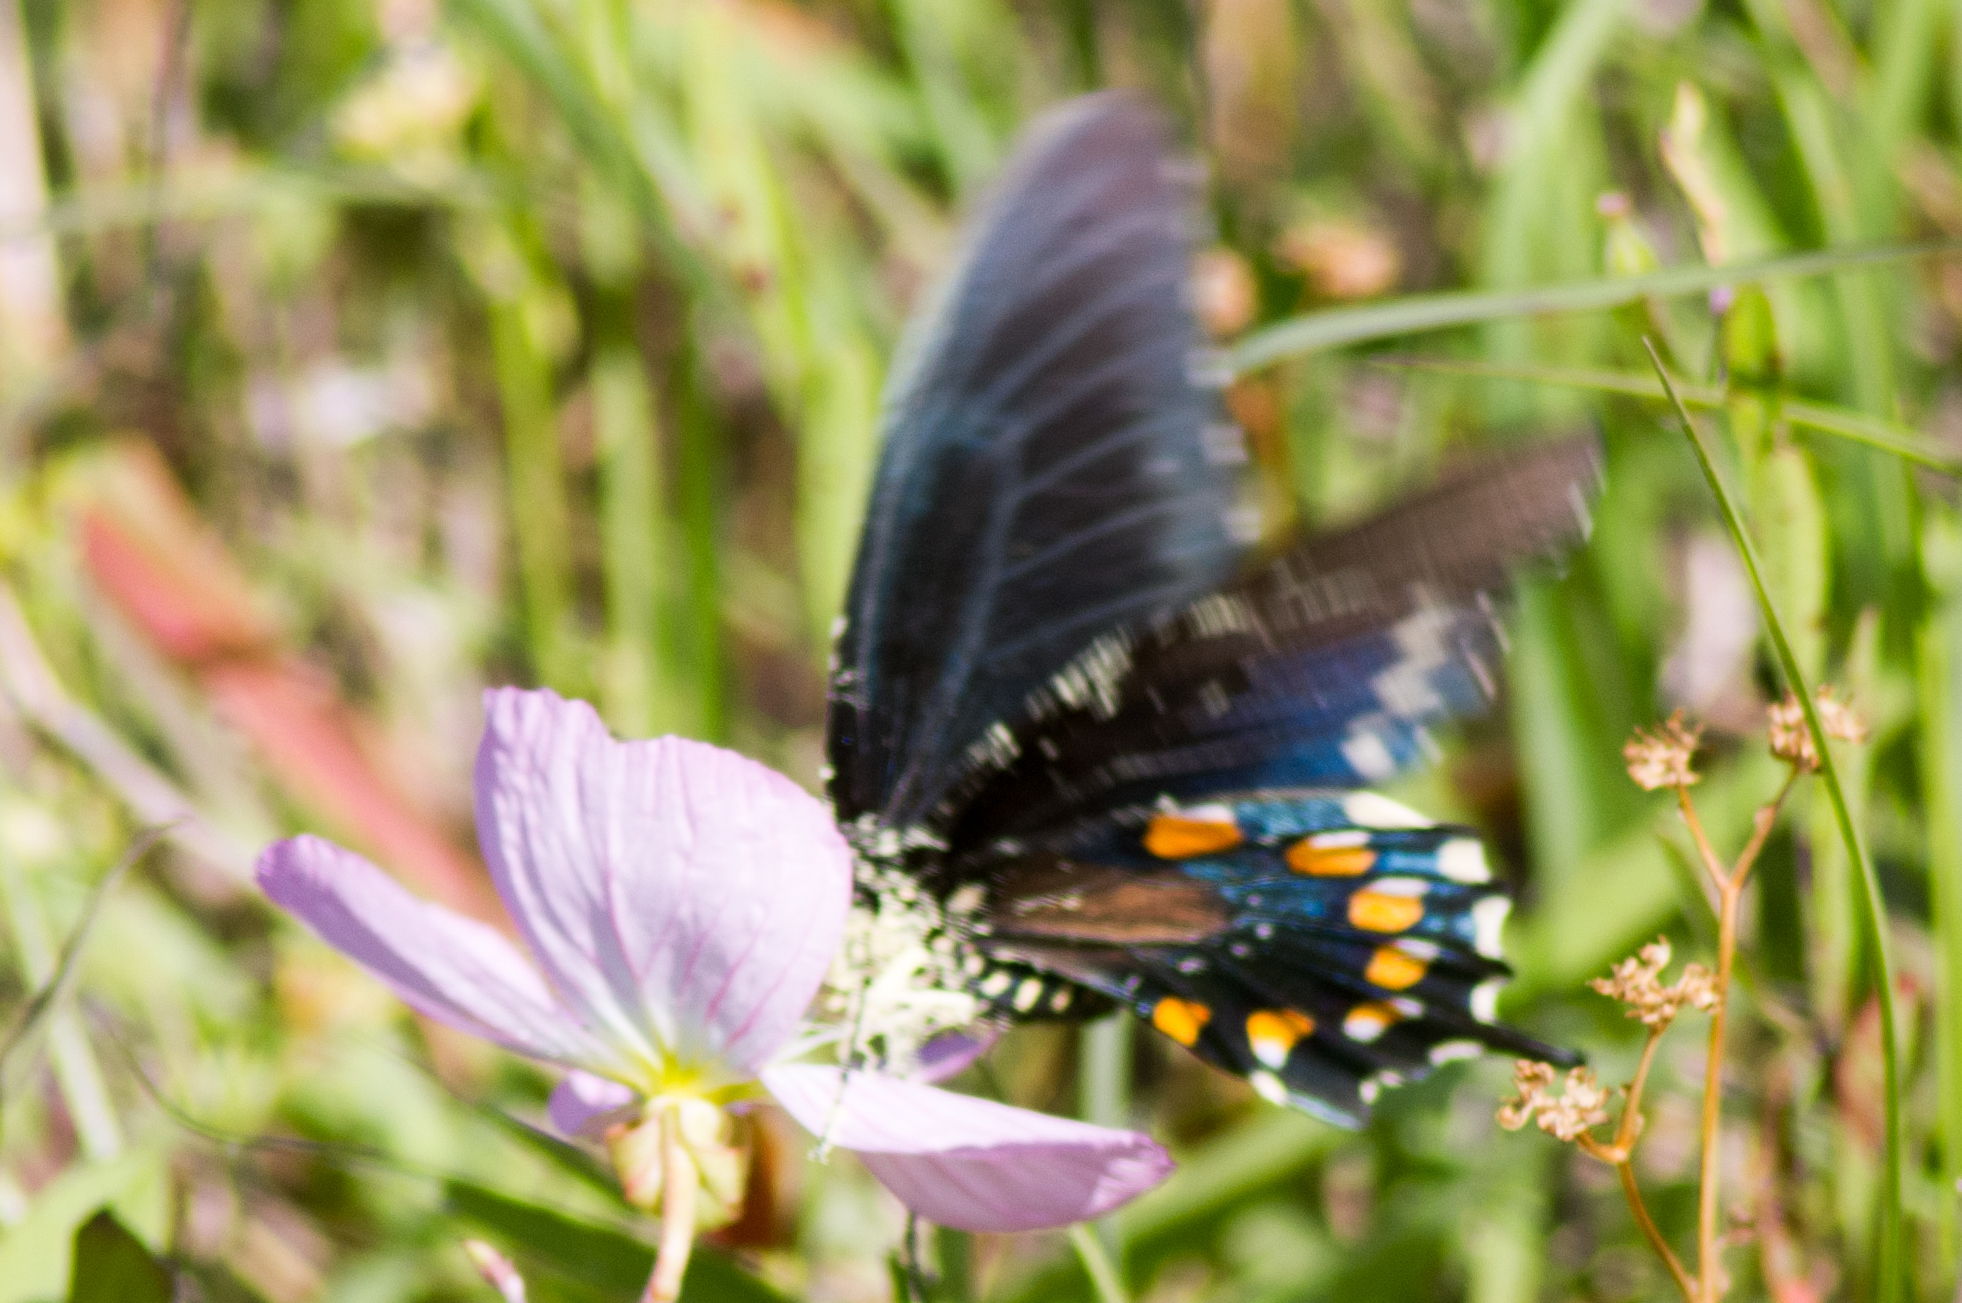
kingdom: Animalia
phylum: Arthropoda
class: Insecta
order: Lepidoptera
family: Papilionidae
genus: Battus
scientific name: Battus philenor
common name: Pipevine swallowtail
